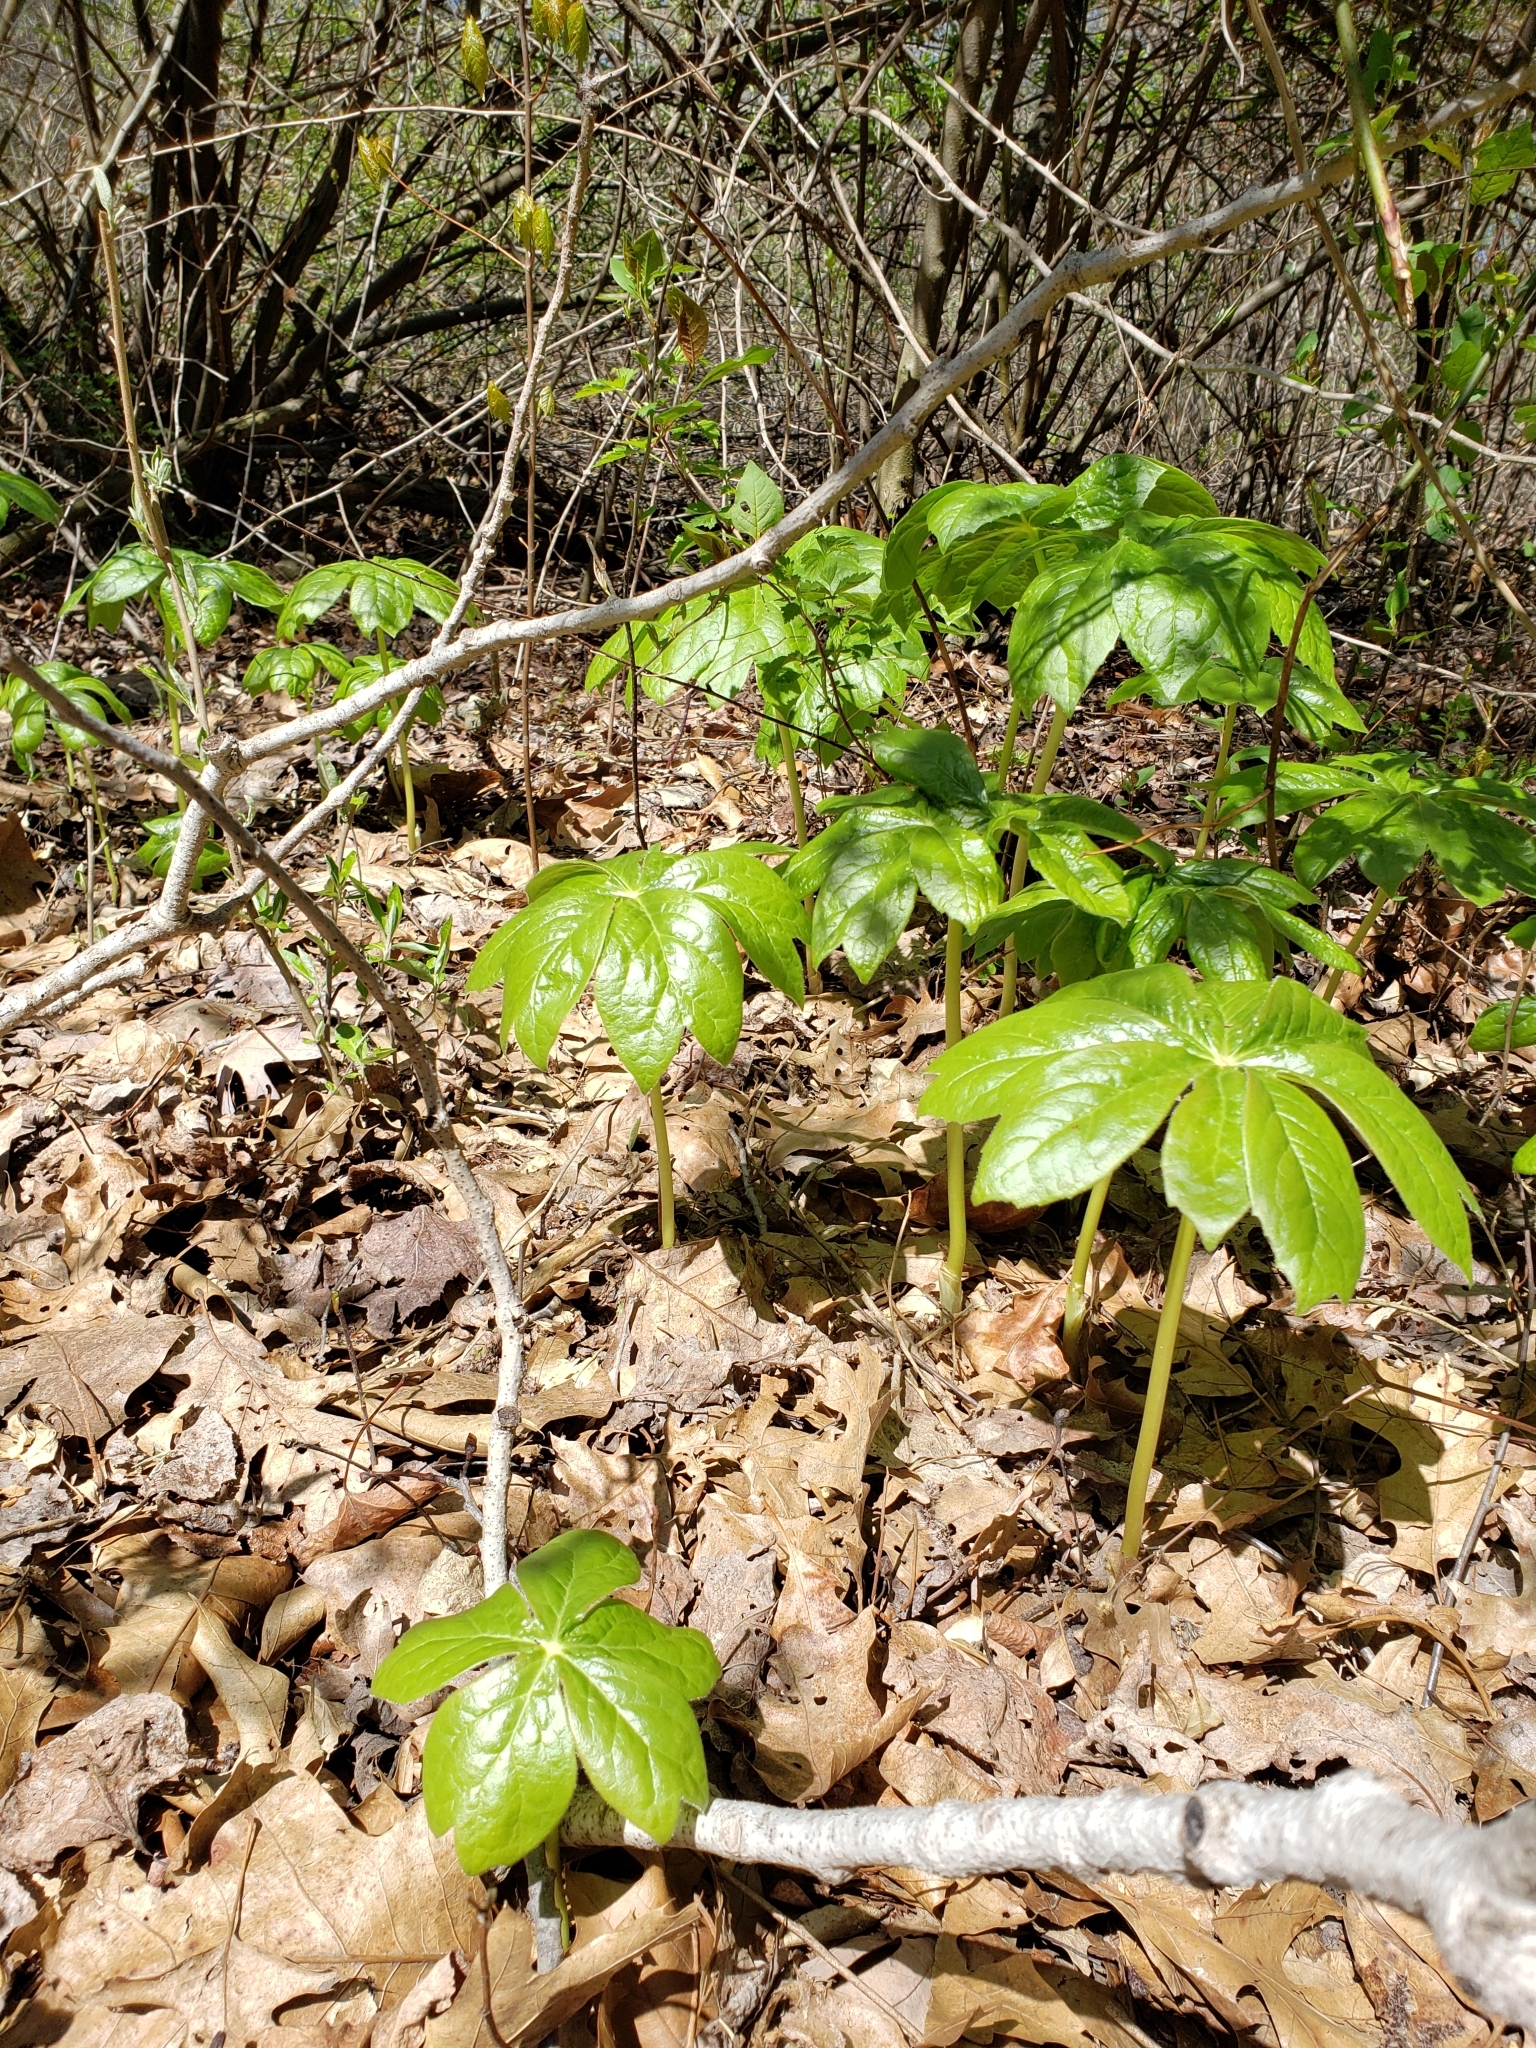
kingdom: Plantae
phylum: Tracheophyta
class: Magnoliopsida
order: Ranunculales
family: Berberidaceae
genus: Podophyllum
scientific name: Podophyllum peltatum
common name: Wild mandrake
